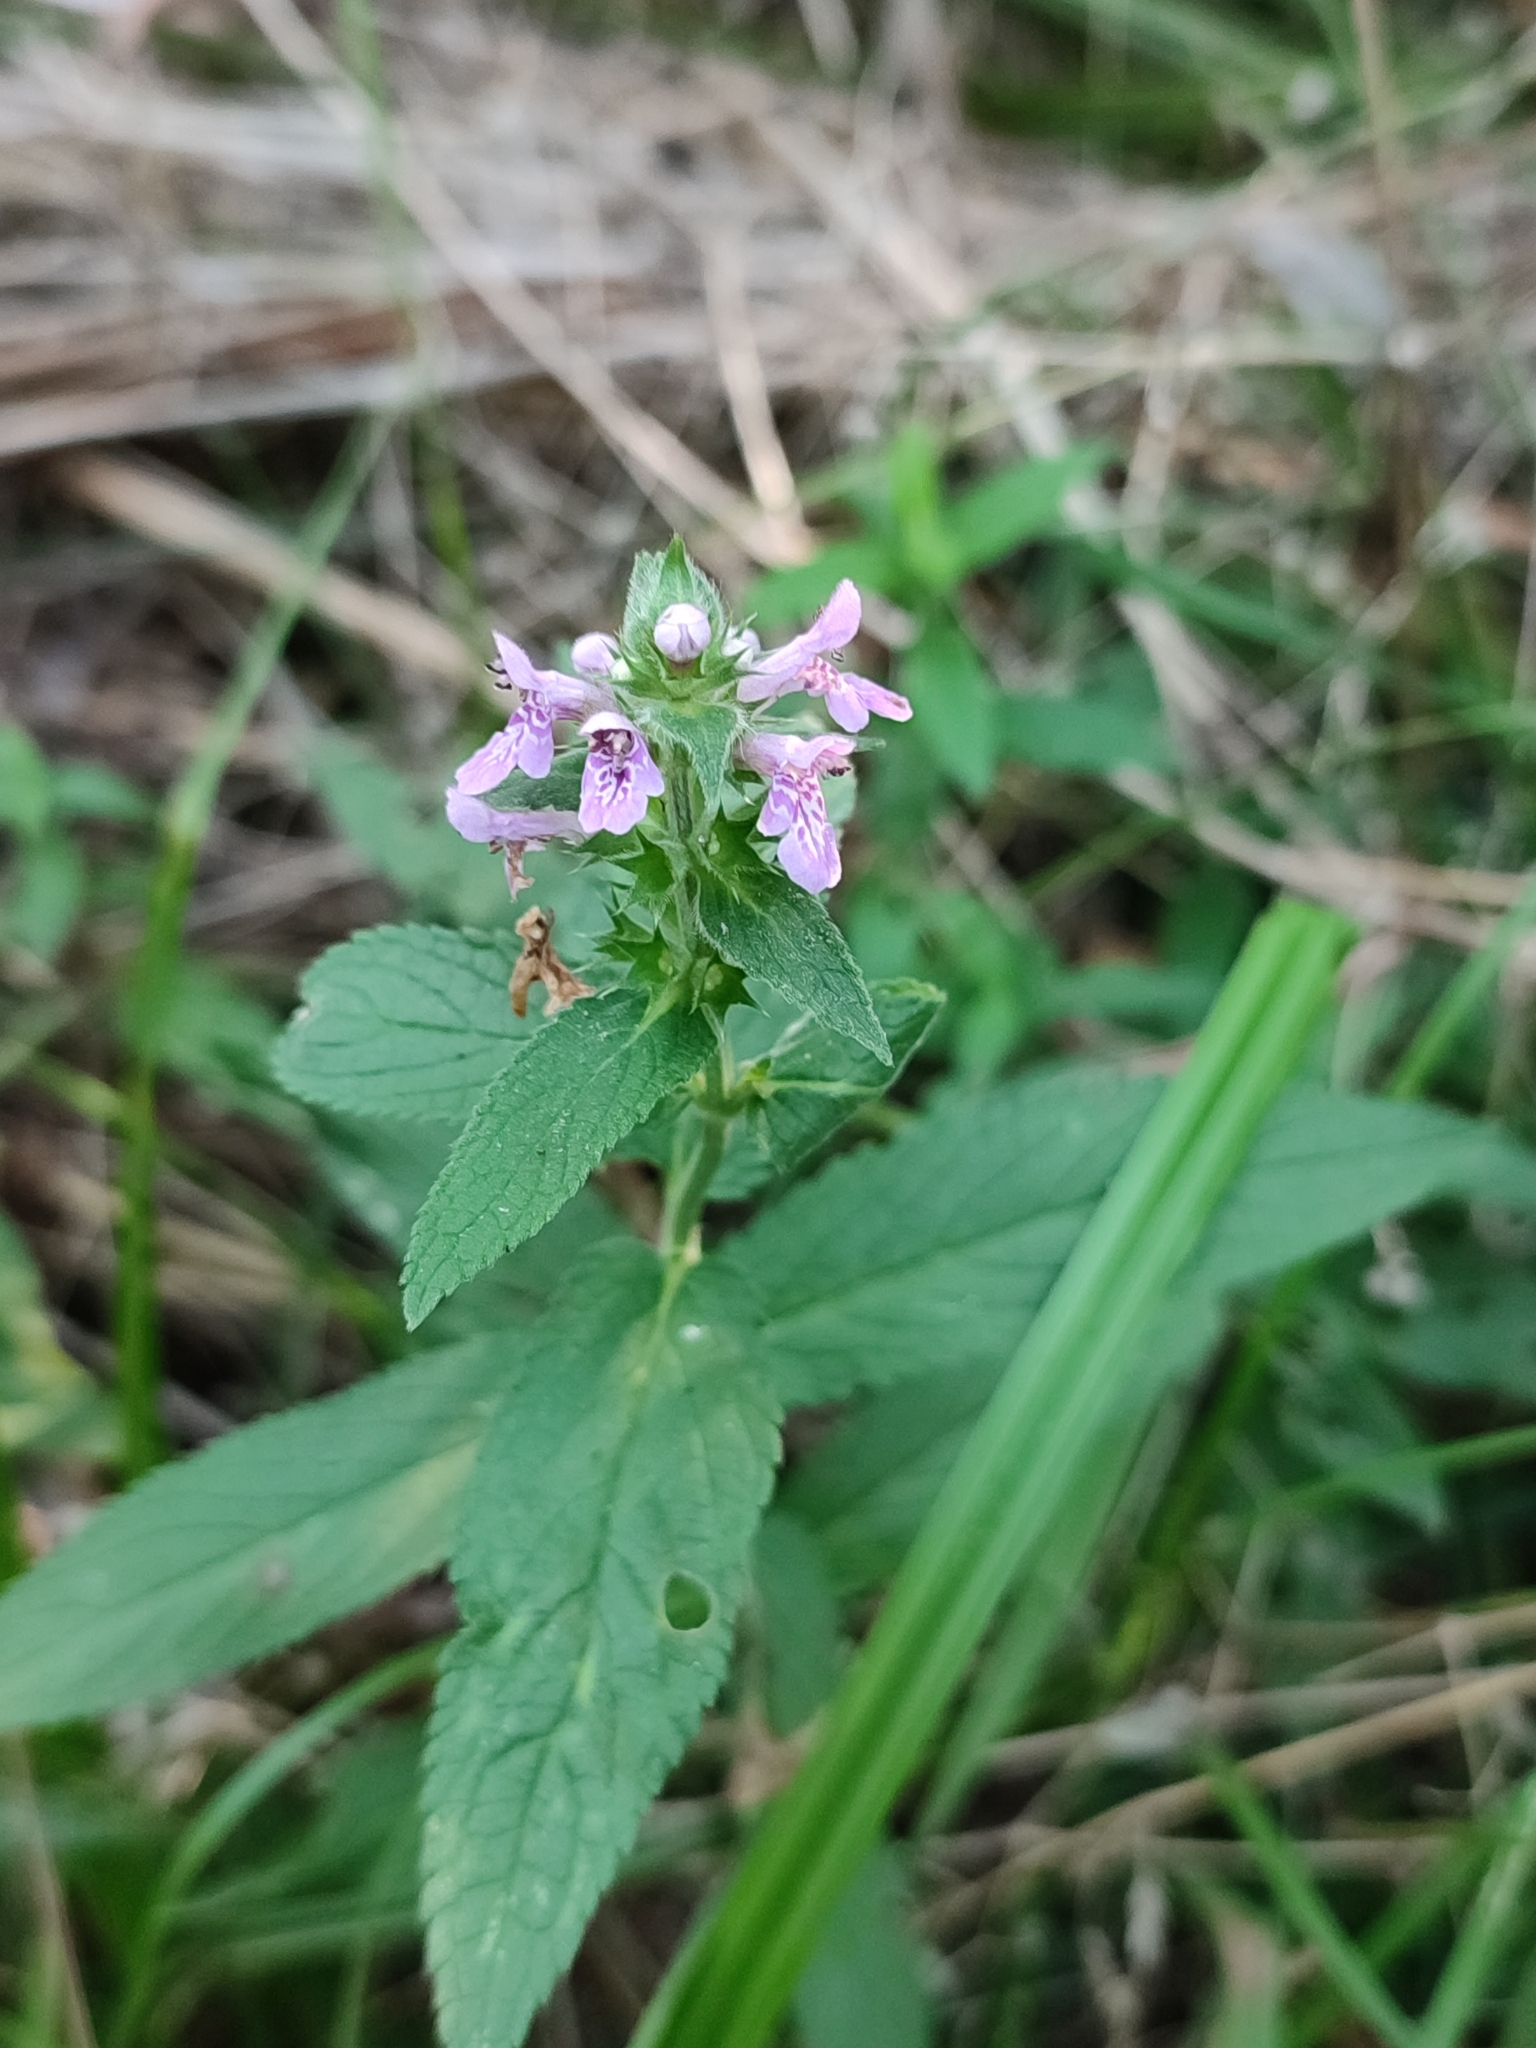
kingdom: Plantae
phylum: Tracheophyta
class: Magnoliopsida
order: Lamiales
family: Lamiaceae
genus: Stachys
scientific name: Stachys palustris
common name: Marsh woundwort
